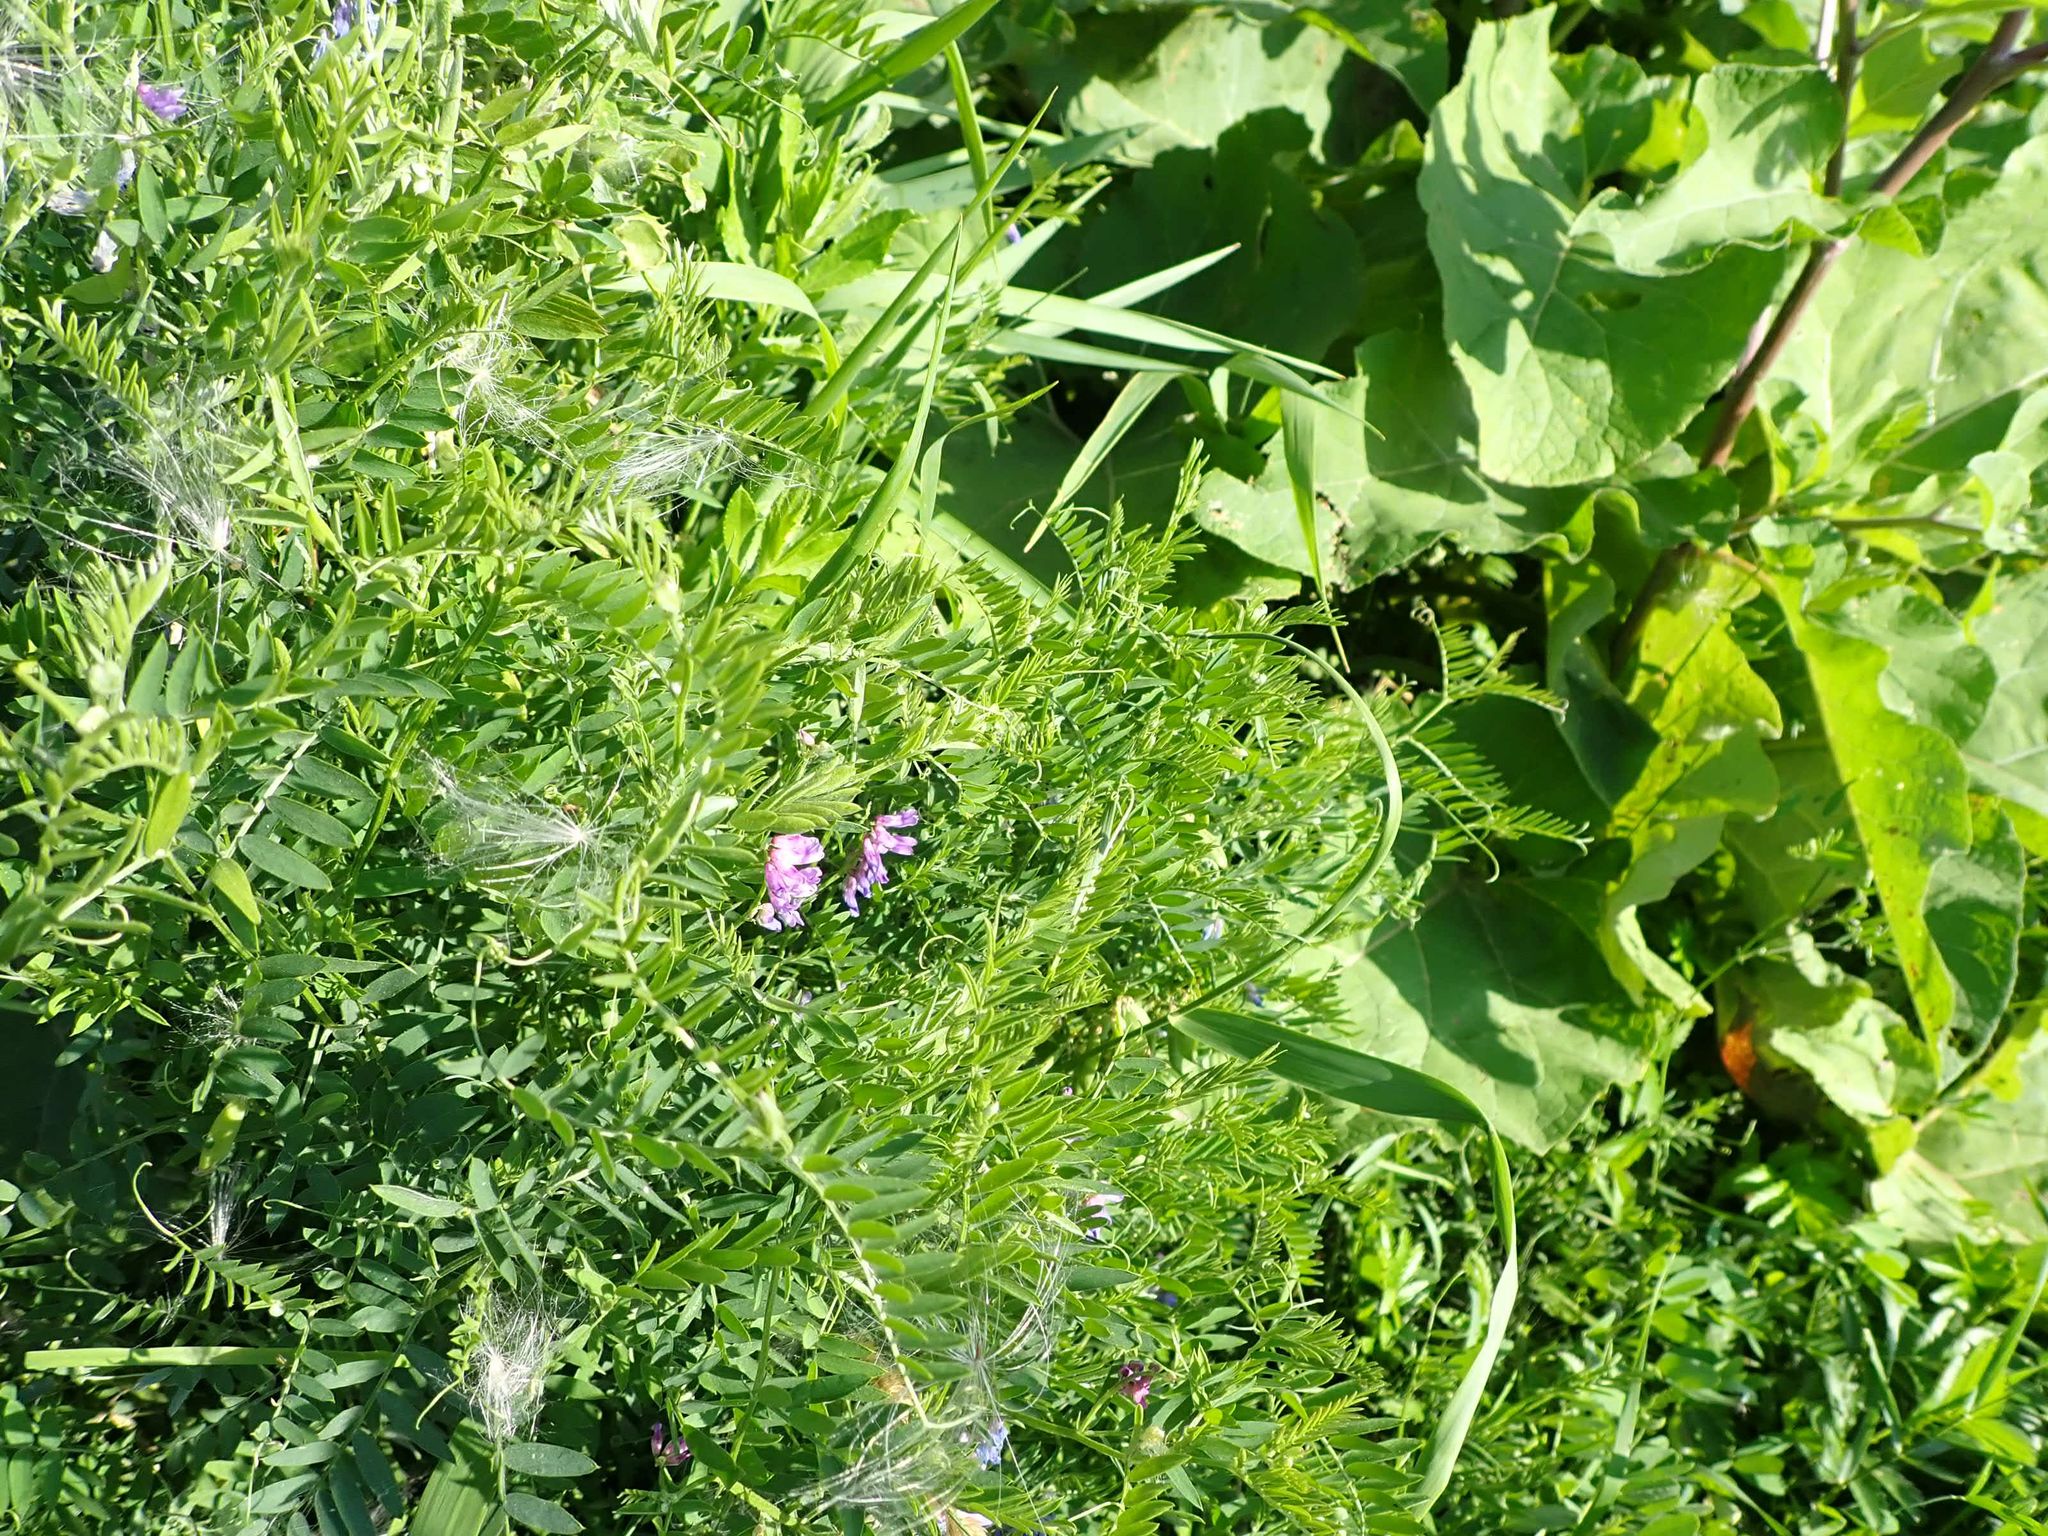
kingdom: Plantae
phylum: Tracheophyta
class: Magnoliopsida
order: Fabales
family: Fabaceae
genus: Vicia
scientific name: Vicia cracca
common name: Bird vetch
